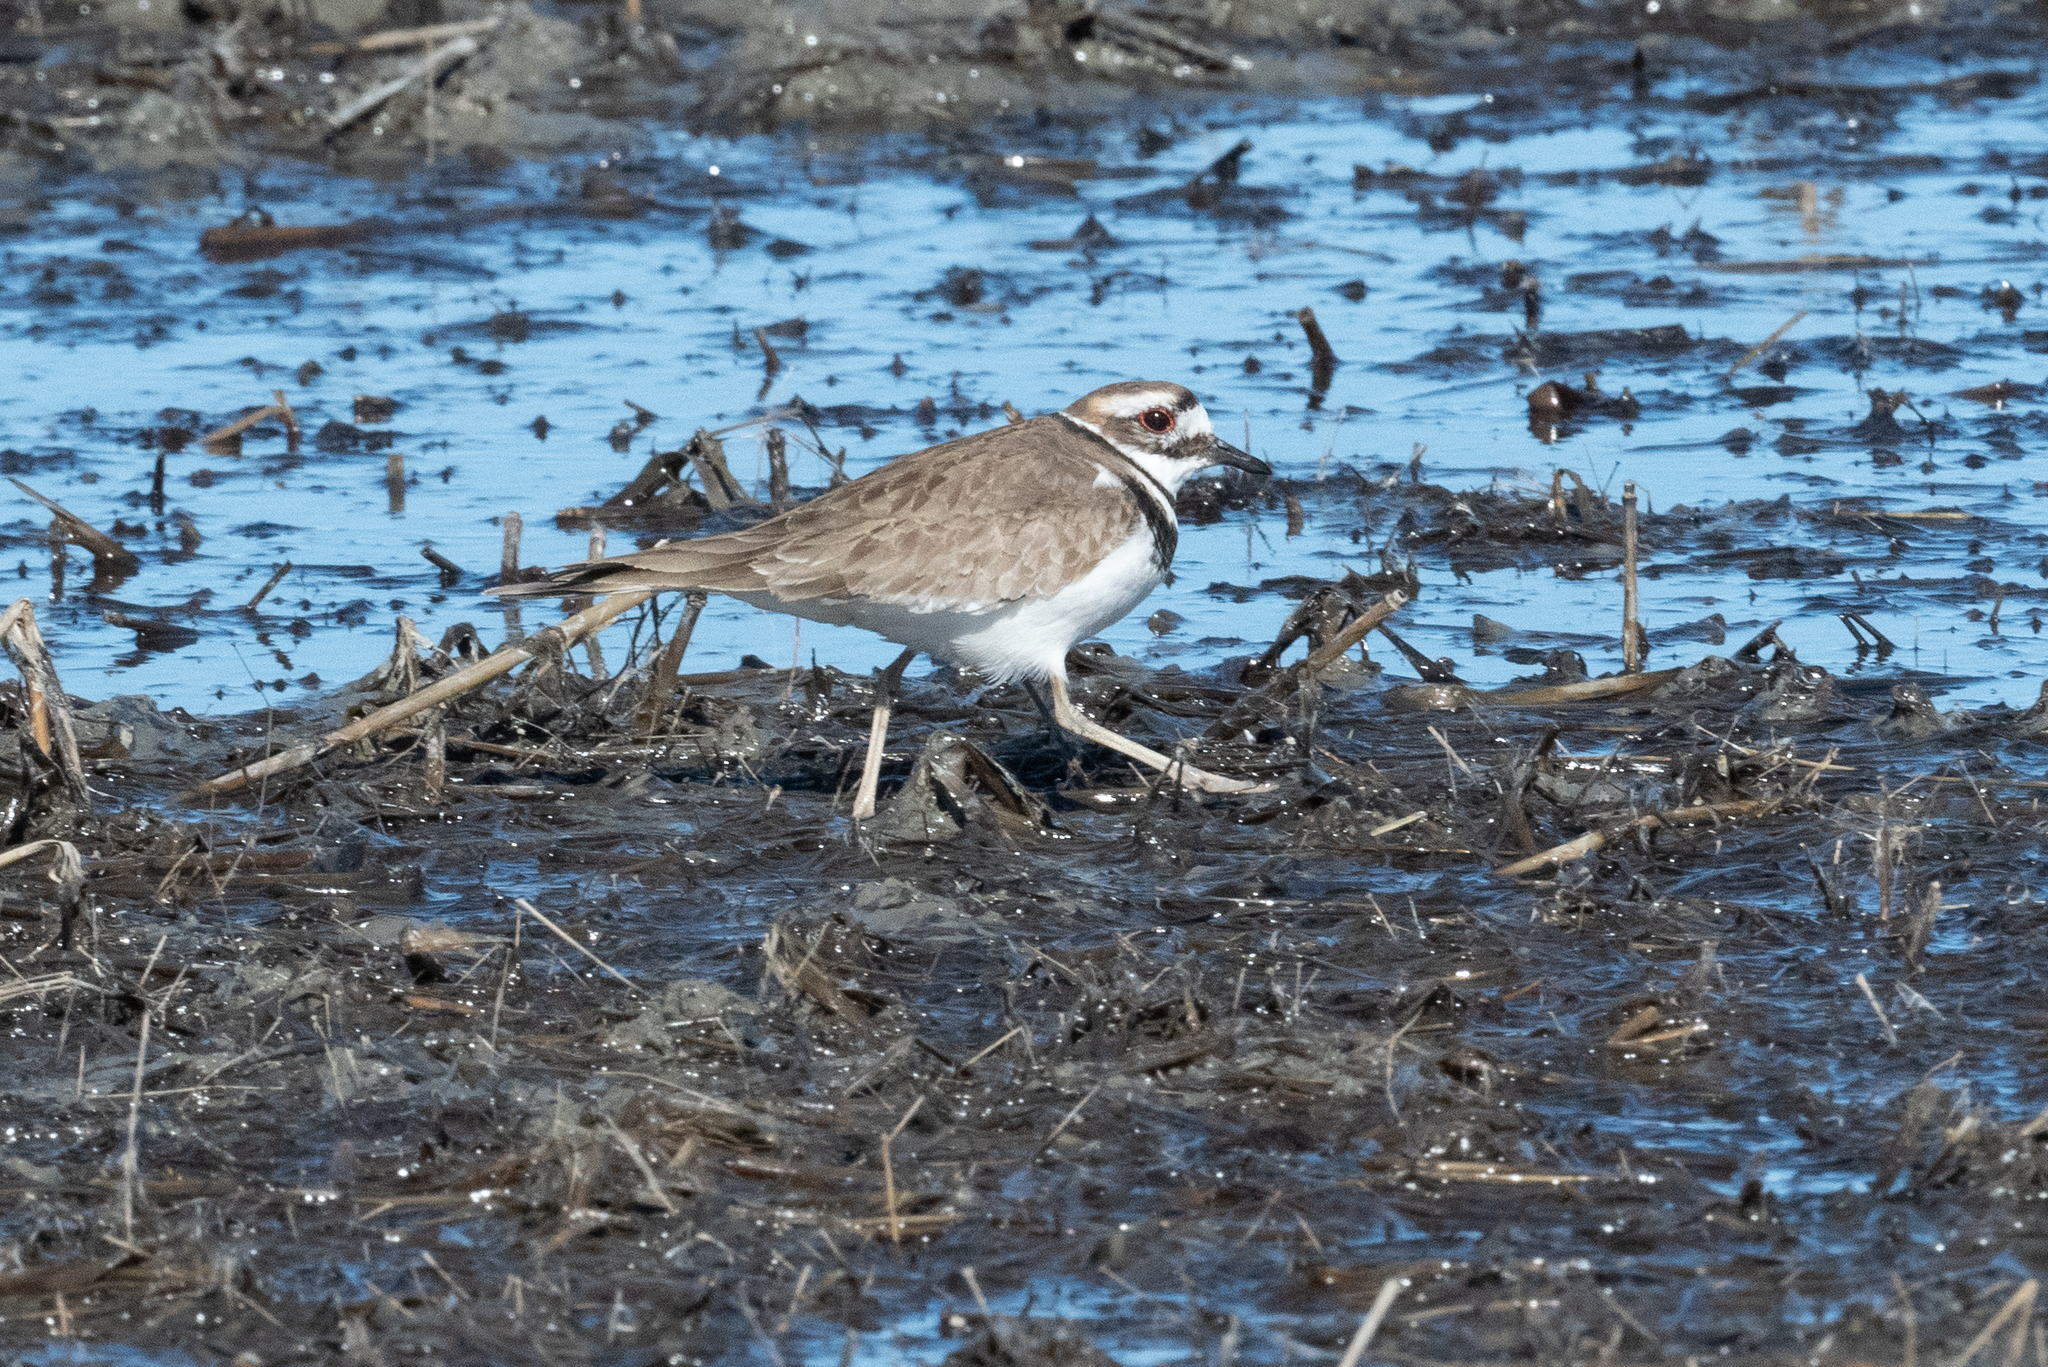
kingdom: Animalia
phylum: Chordata
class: Aves
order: Charadriiformes
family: Charadriidae
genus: Charadrius
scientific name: Charadrius vociferus
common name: Killdeer
